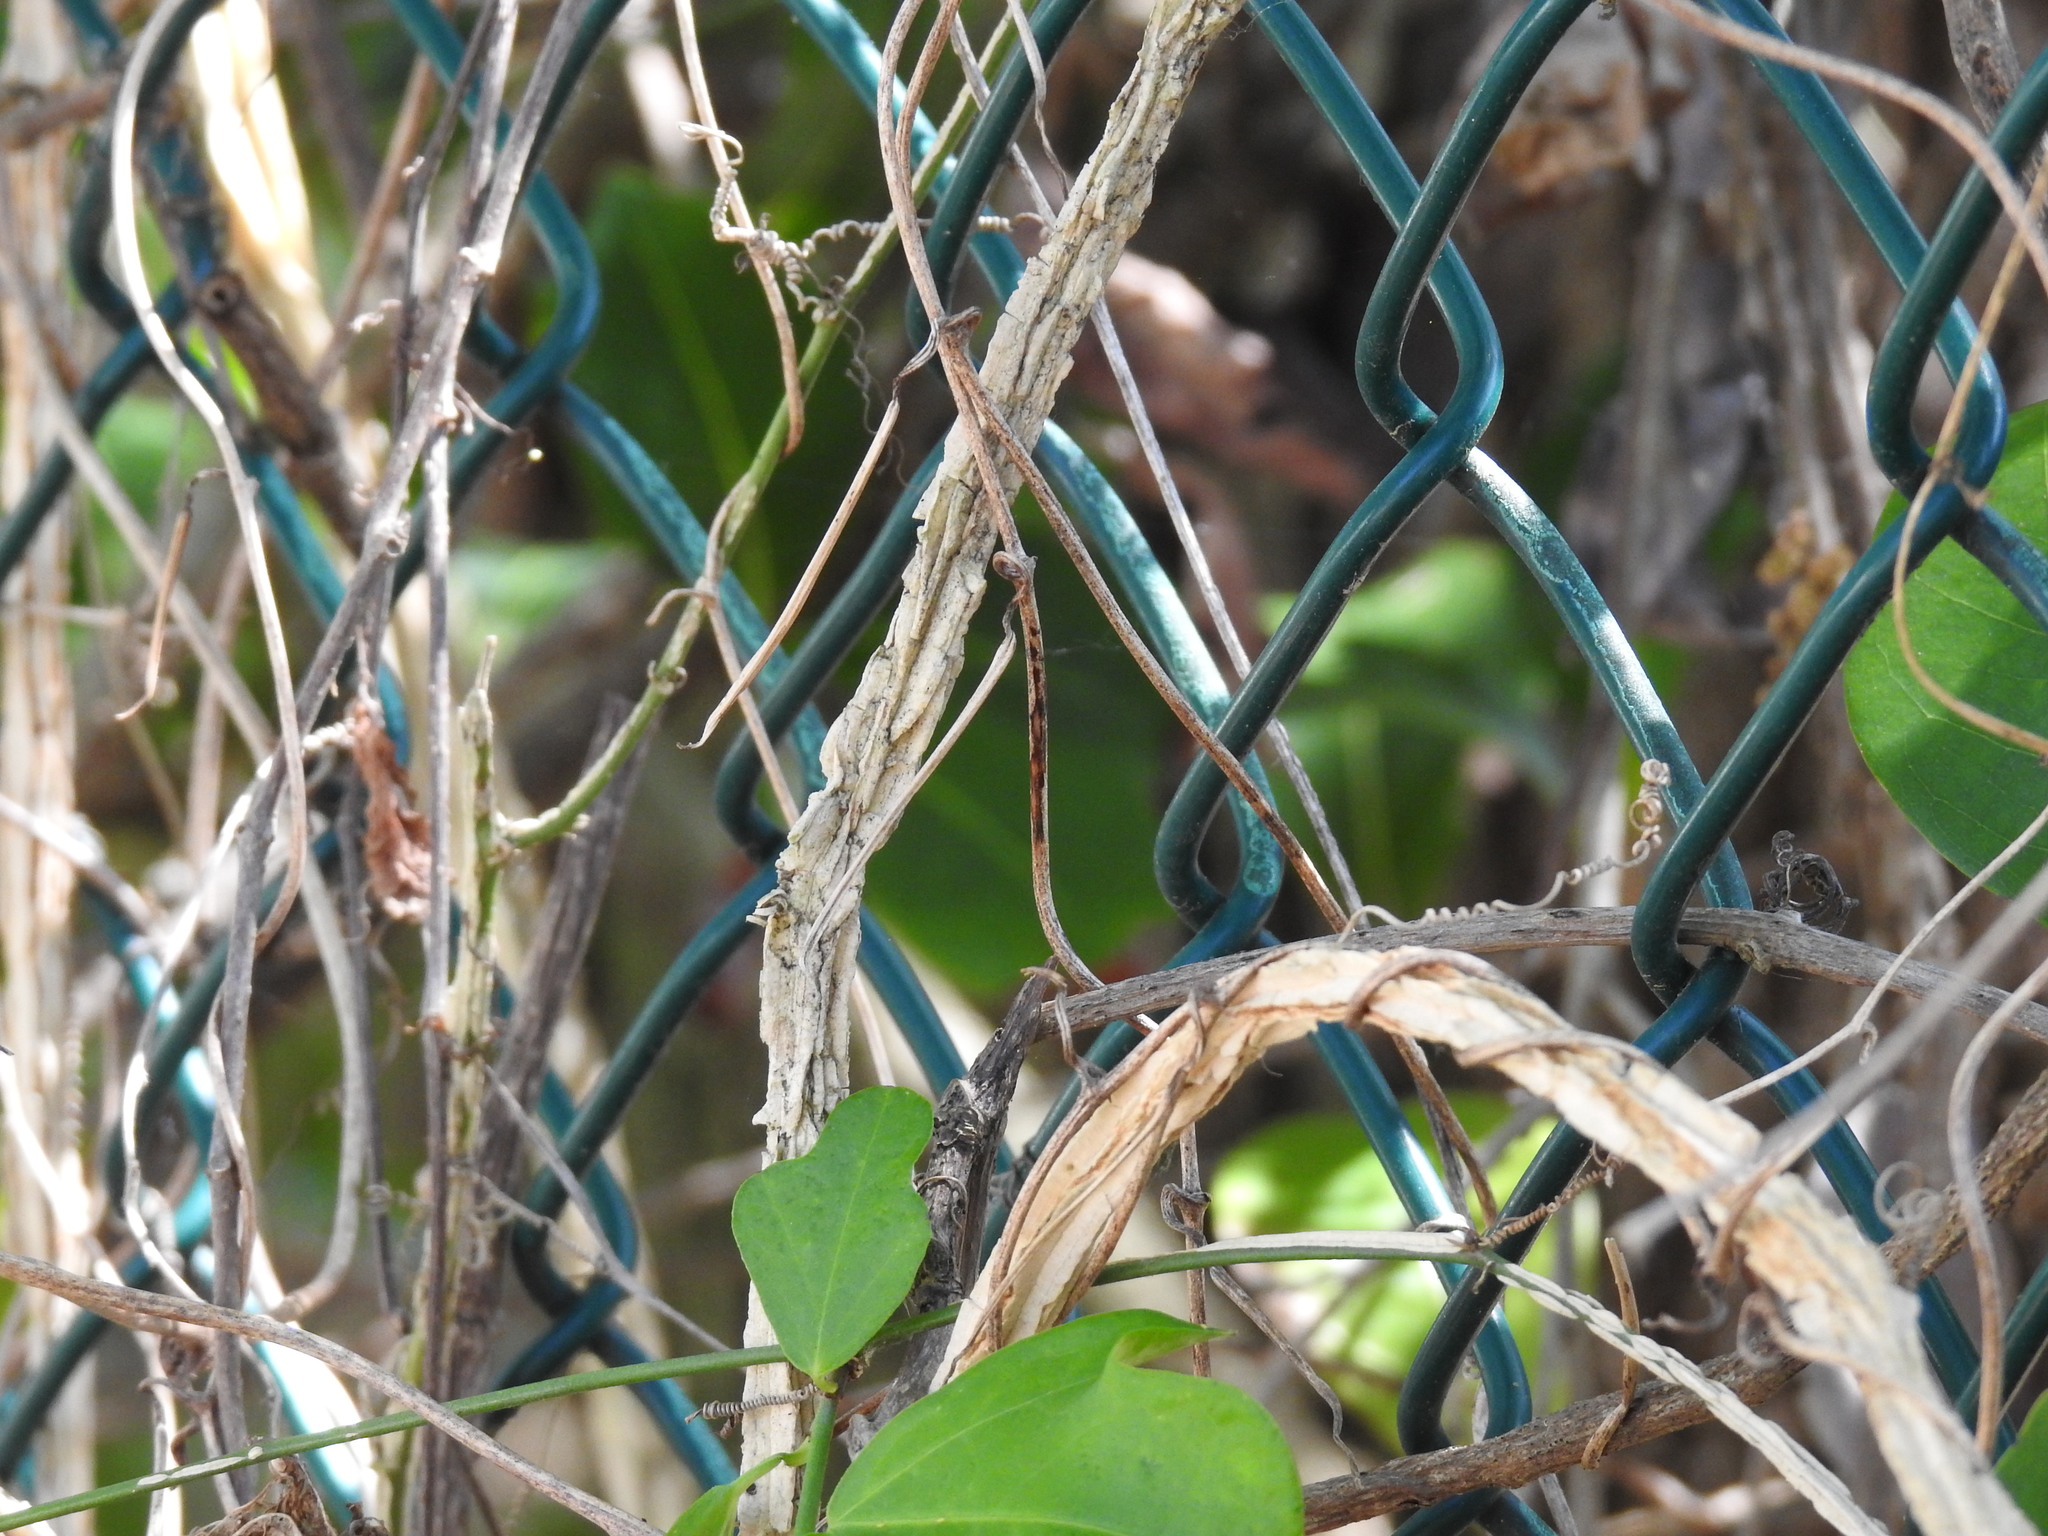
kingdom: Plantae
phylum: Tracheophyta
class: Magnoliopsida
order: Malpighiales
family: Passifloraceae
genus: Passiflora
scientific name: Passiflora pallida
